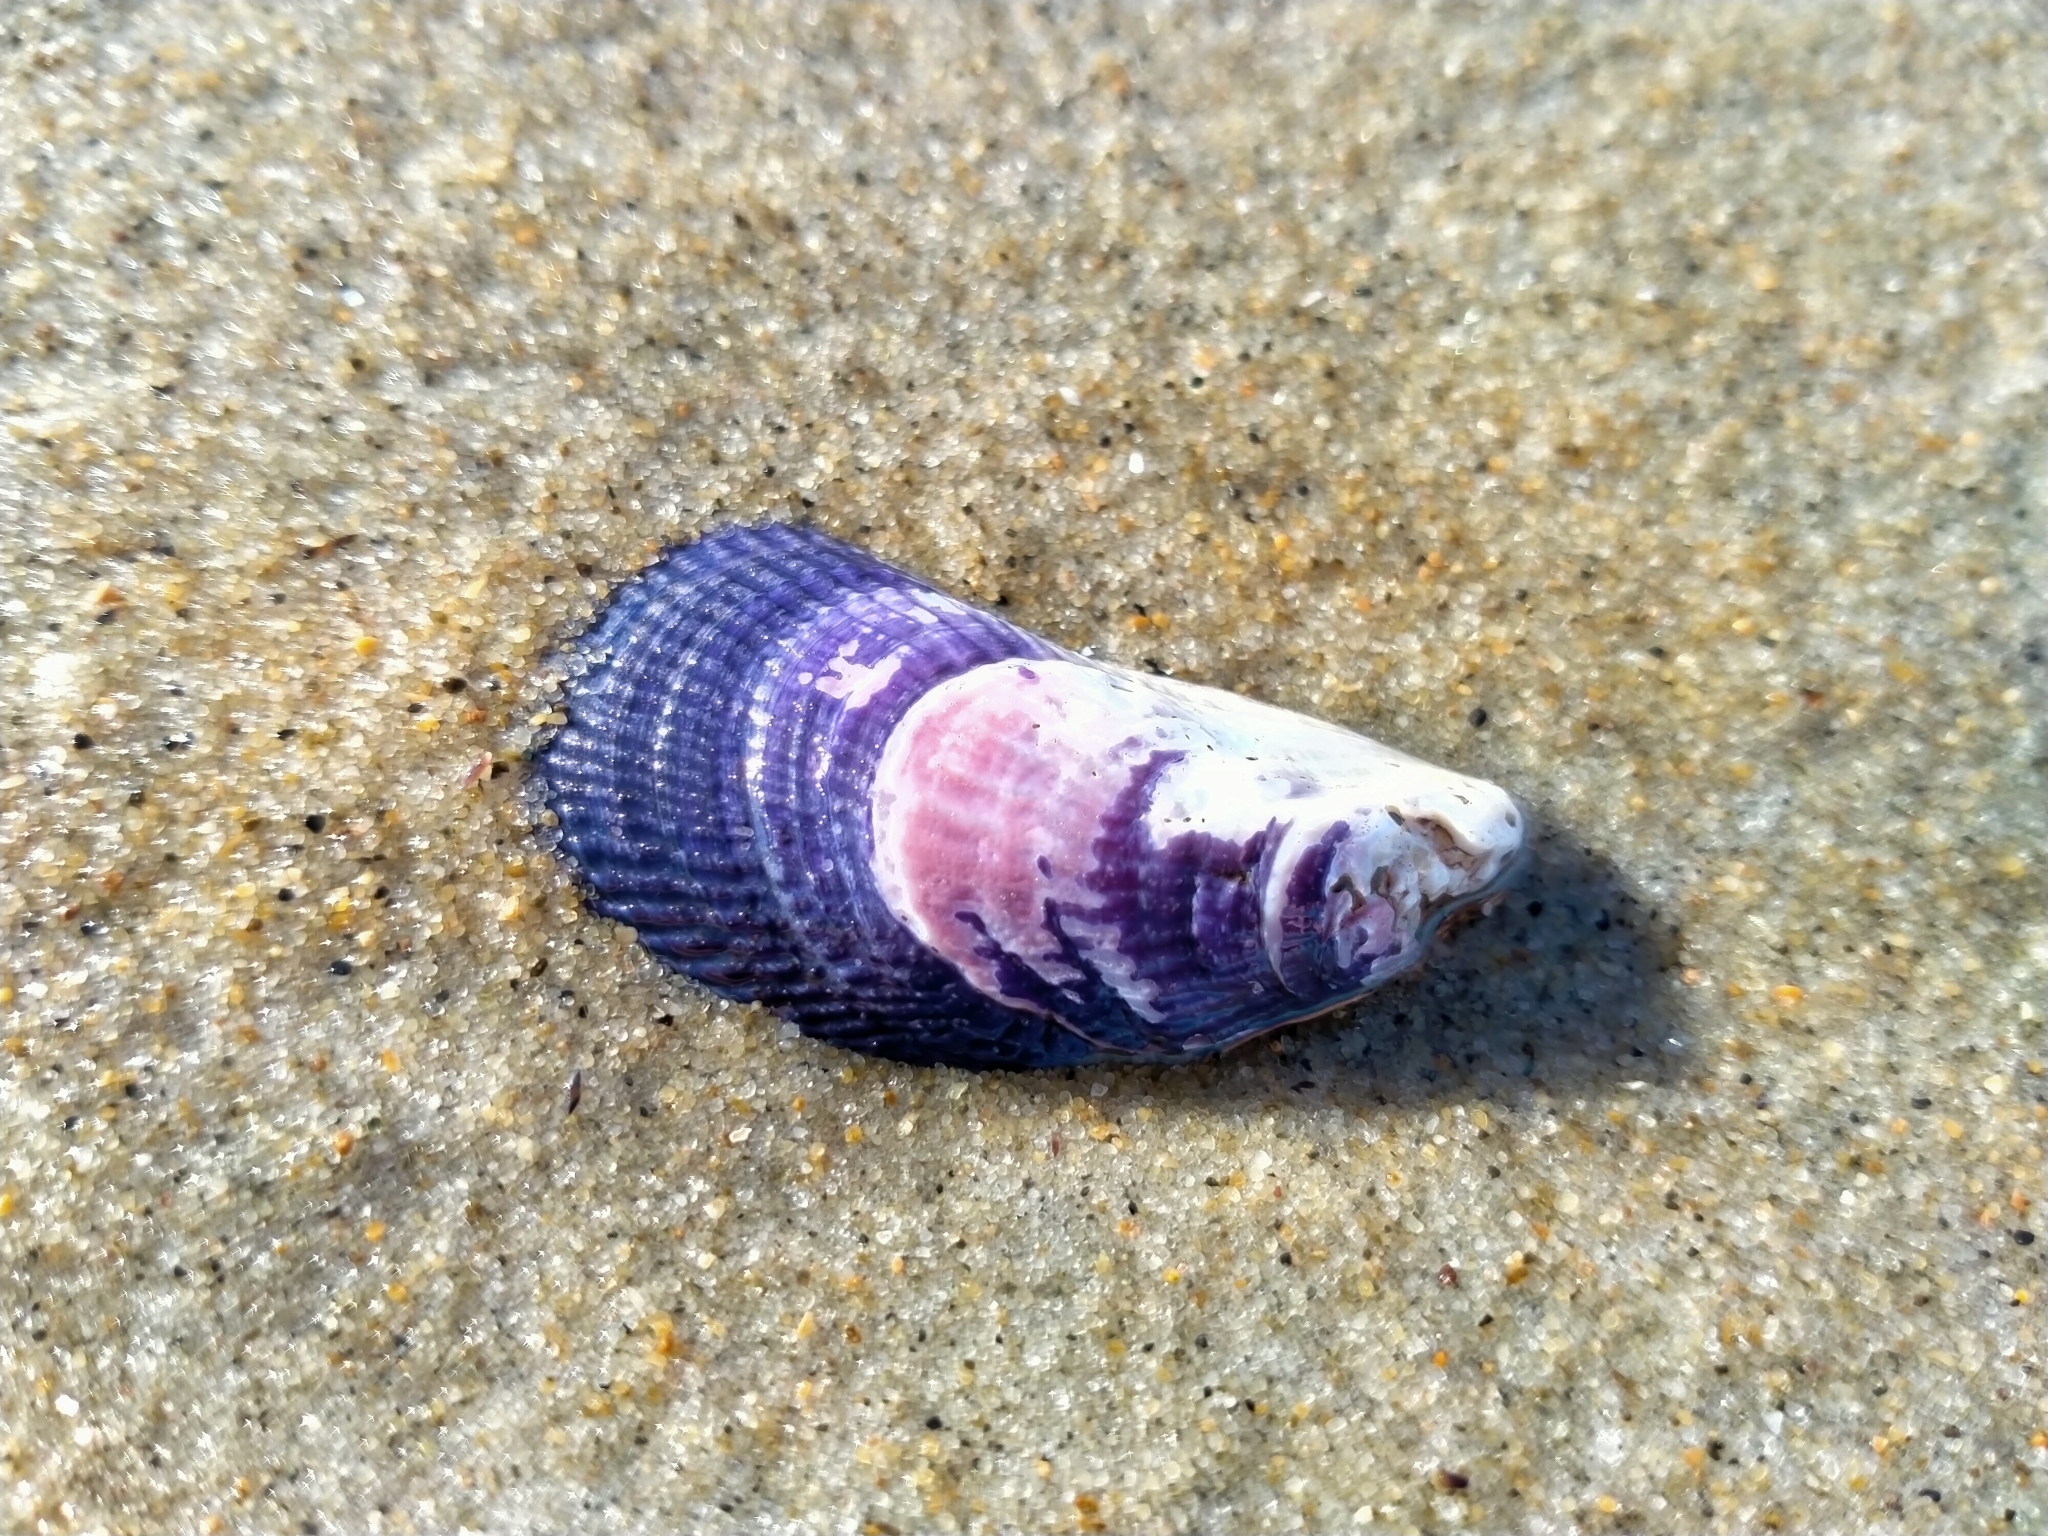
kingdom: Animalia
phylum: Mollusca
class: Bivalvia
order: Mytilida
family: Mytilidae
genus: Aulacomya
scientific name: Aulacomya maoriana
